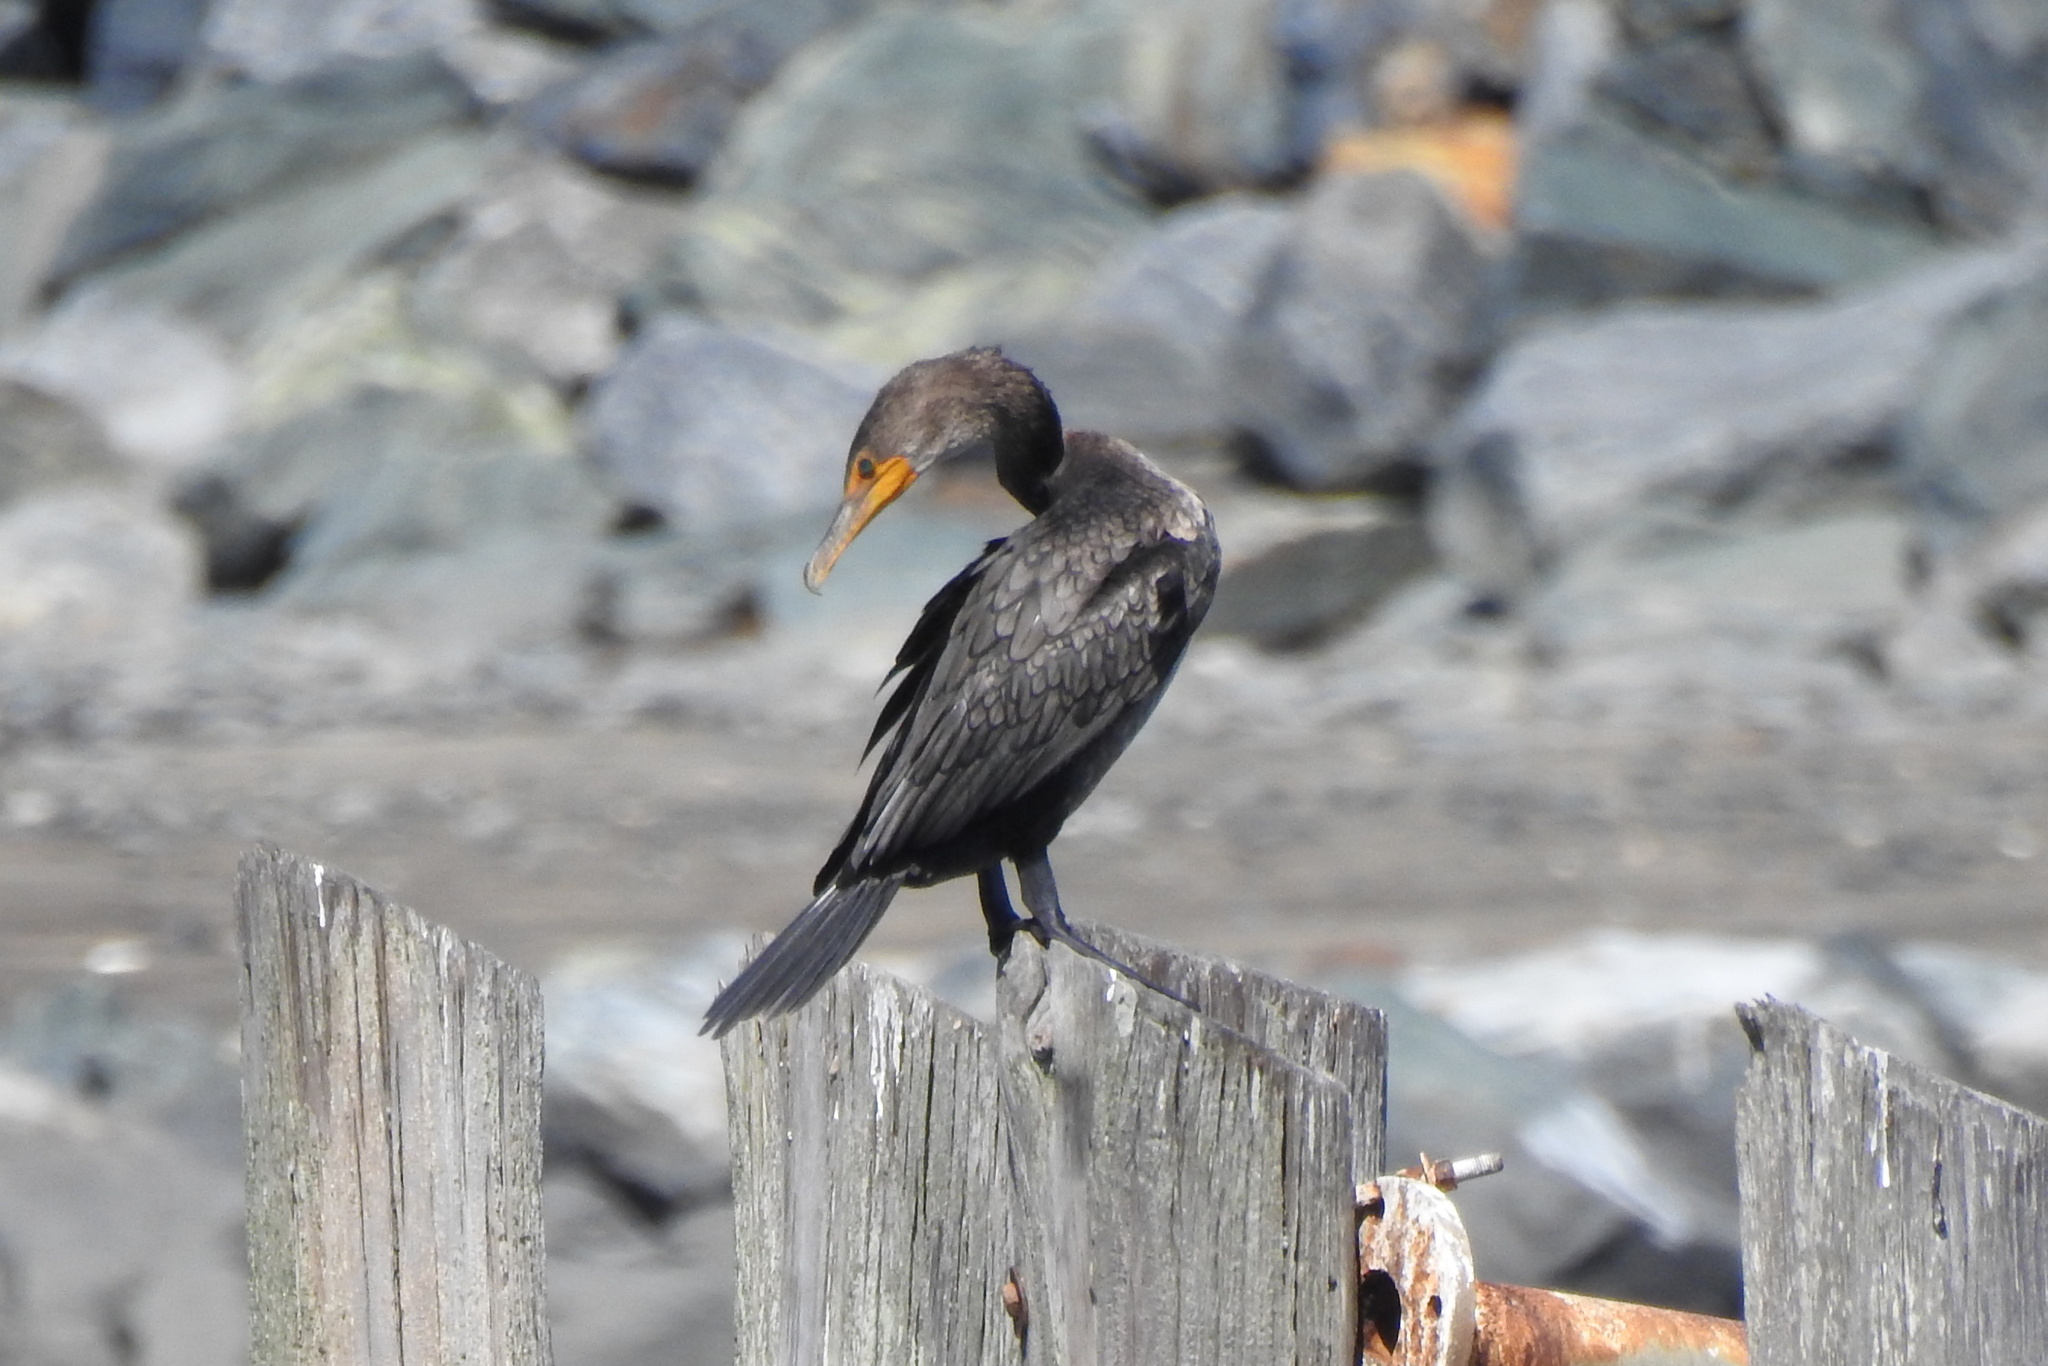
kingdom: Animalia
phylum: Chordata
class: Aves
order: Suliformes
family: Phalacrocoracidae
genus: Phalacrocorax
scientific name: Phalacrocorax auritus
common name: Double-crested cormorant
